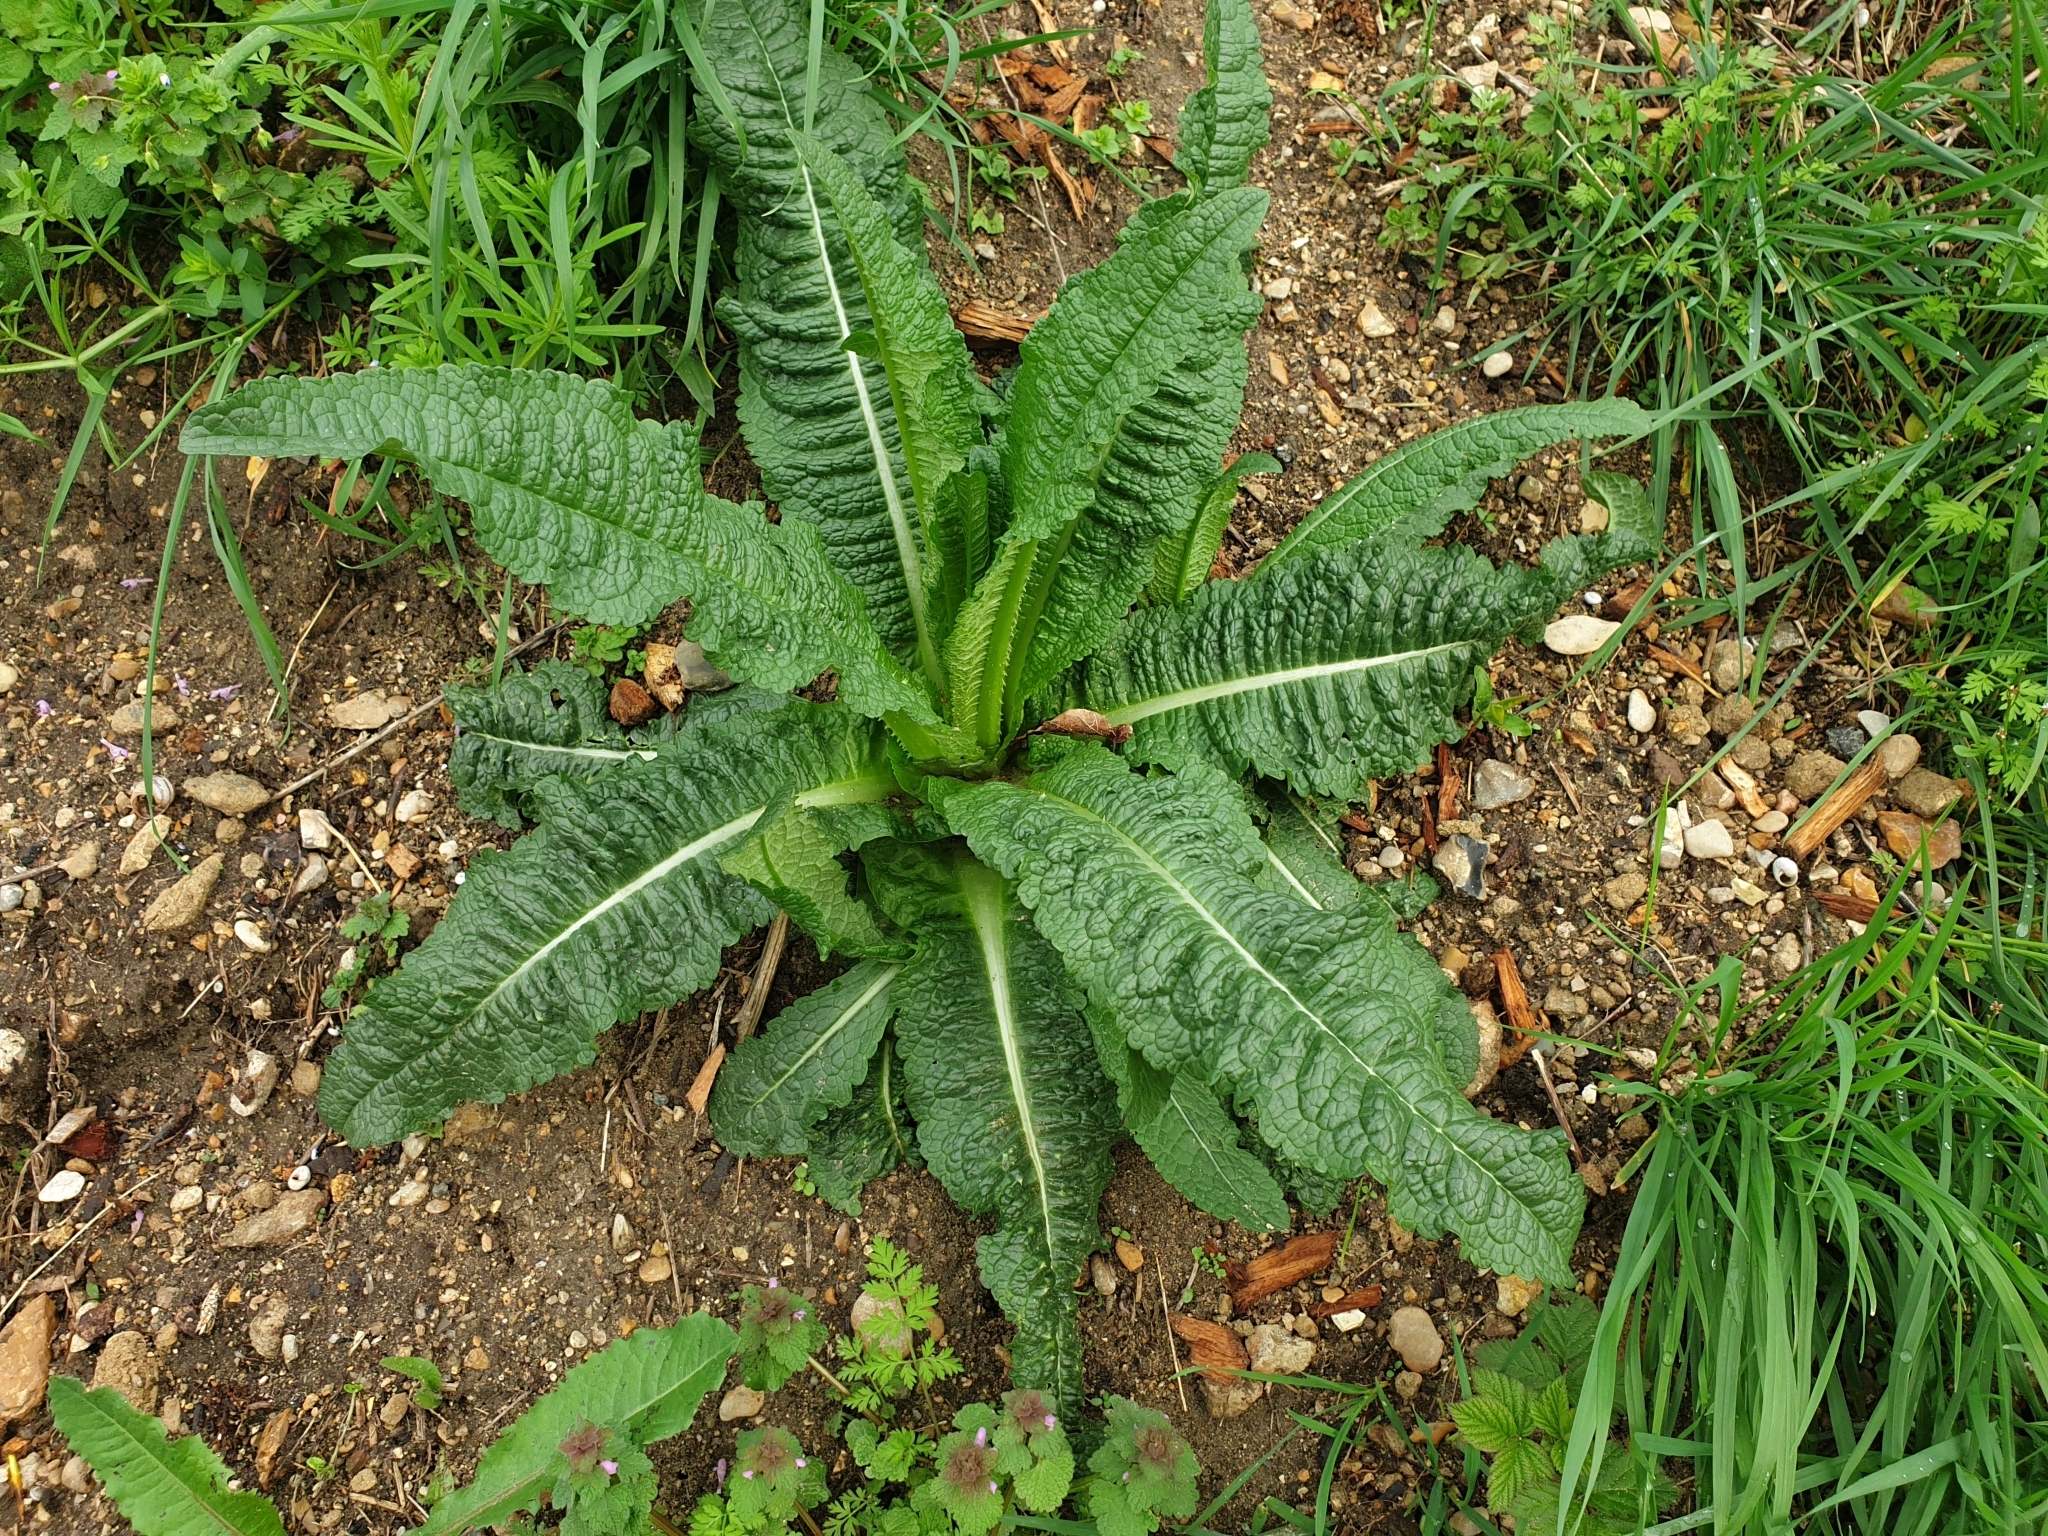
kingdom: Plantae
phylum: Tracheophyta
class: Magnoliopsida
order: Dipsacales
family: Caprifoliaceae
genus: Dipsacus
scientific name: Dipsacus fullonum
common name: Teasel
